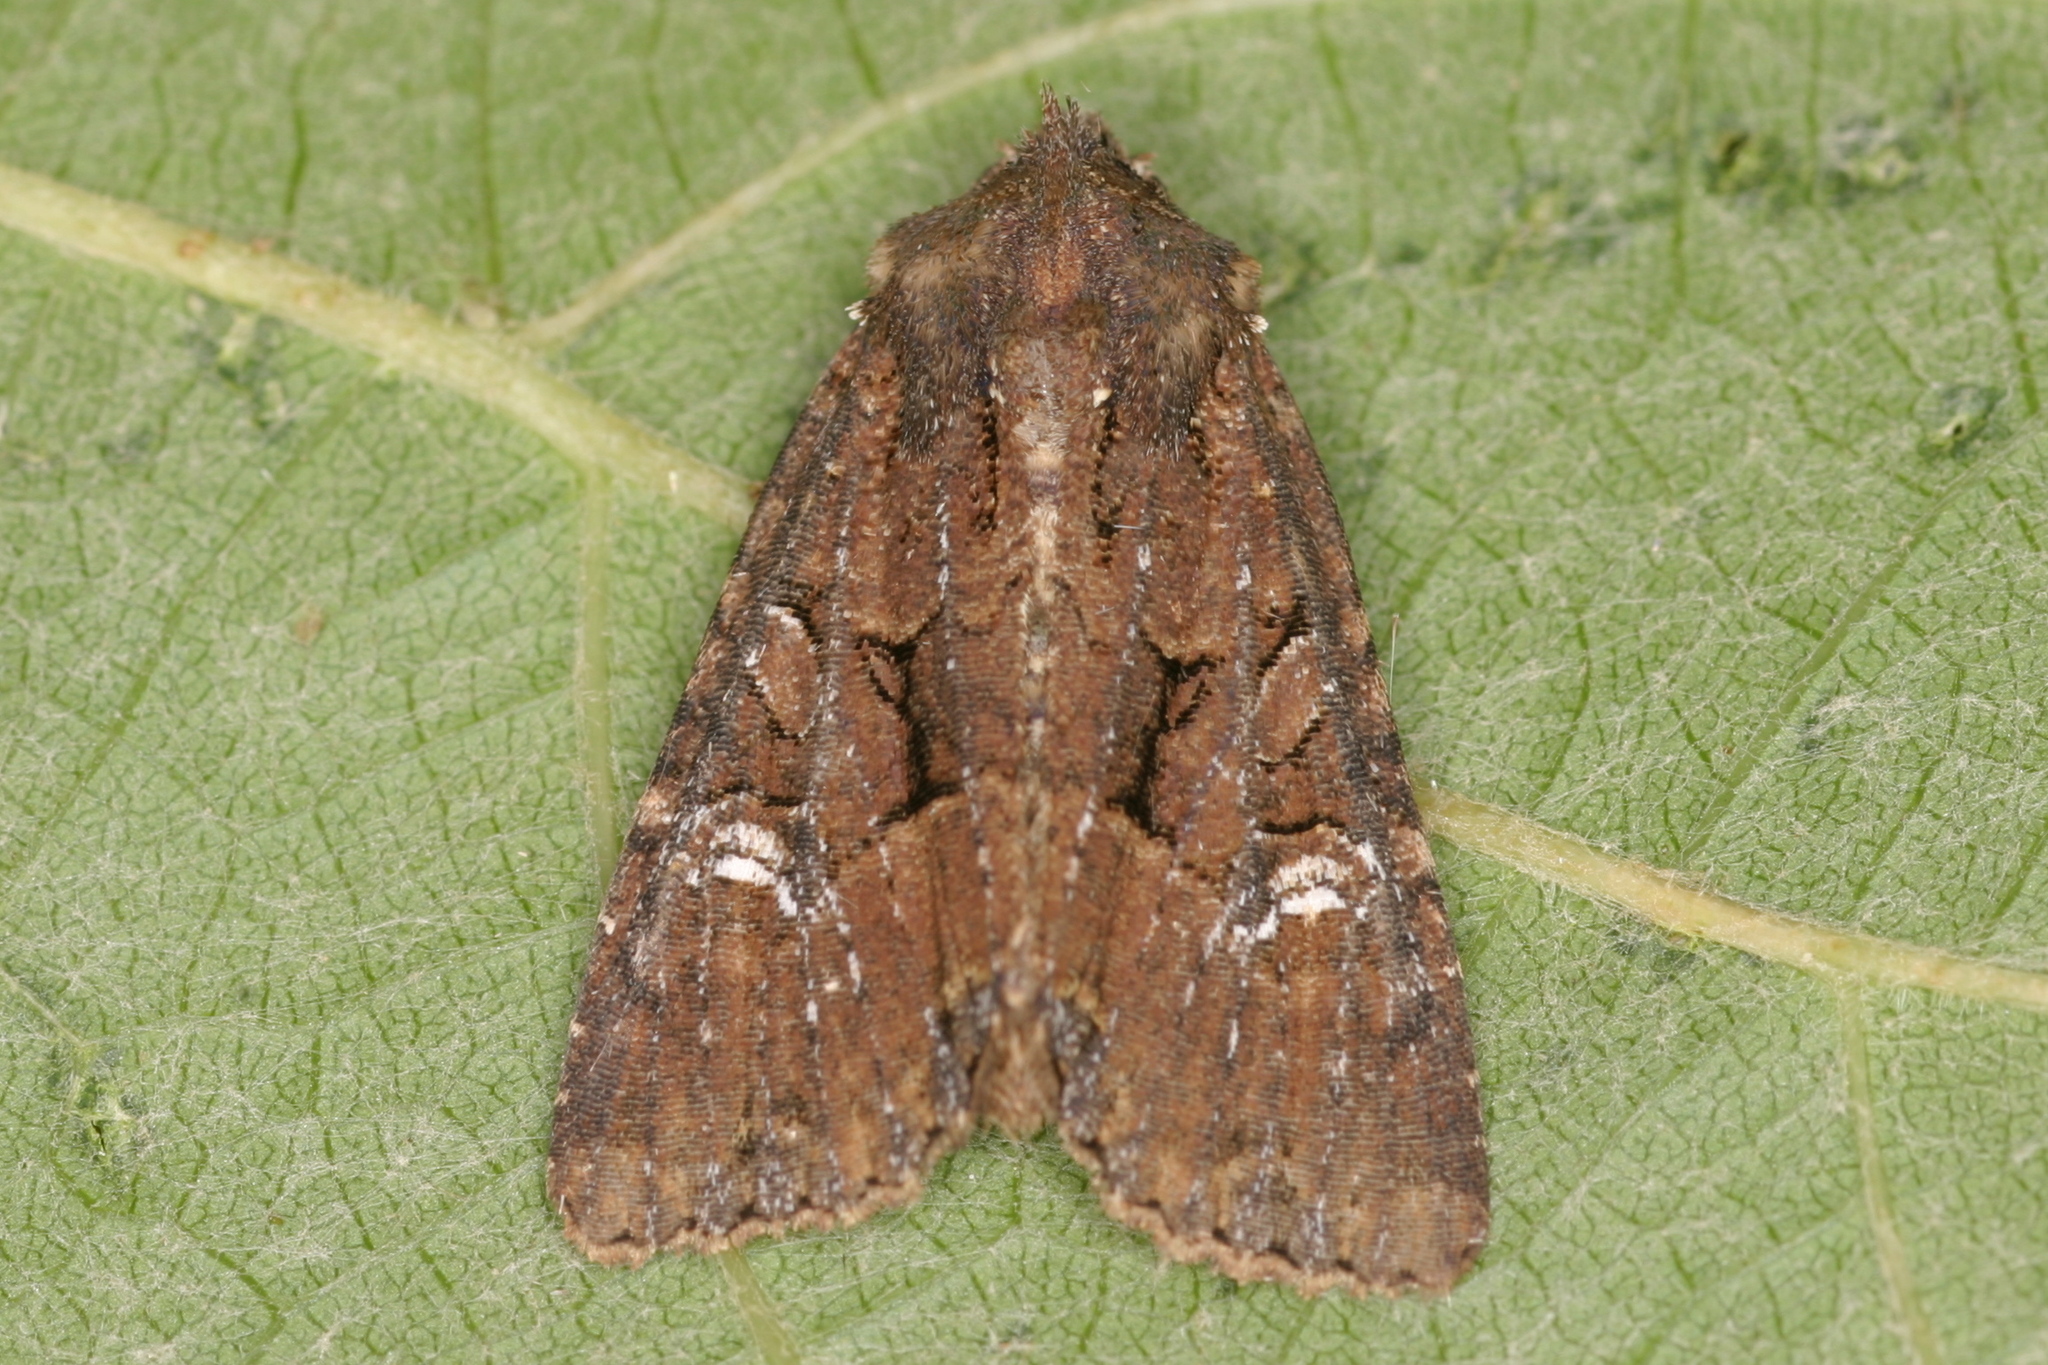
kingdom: Animalia
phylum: Arthropoda
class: Insecta
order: Lepidoptera
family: Noctuidae
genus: Mesapamea
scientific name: Mesapamea
